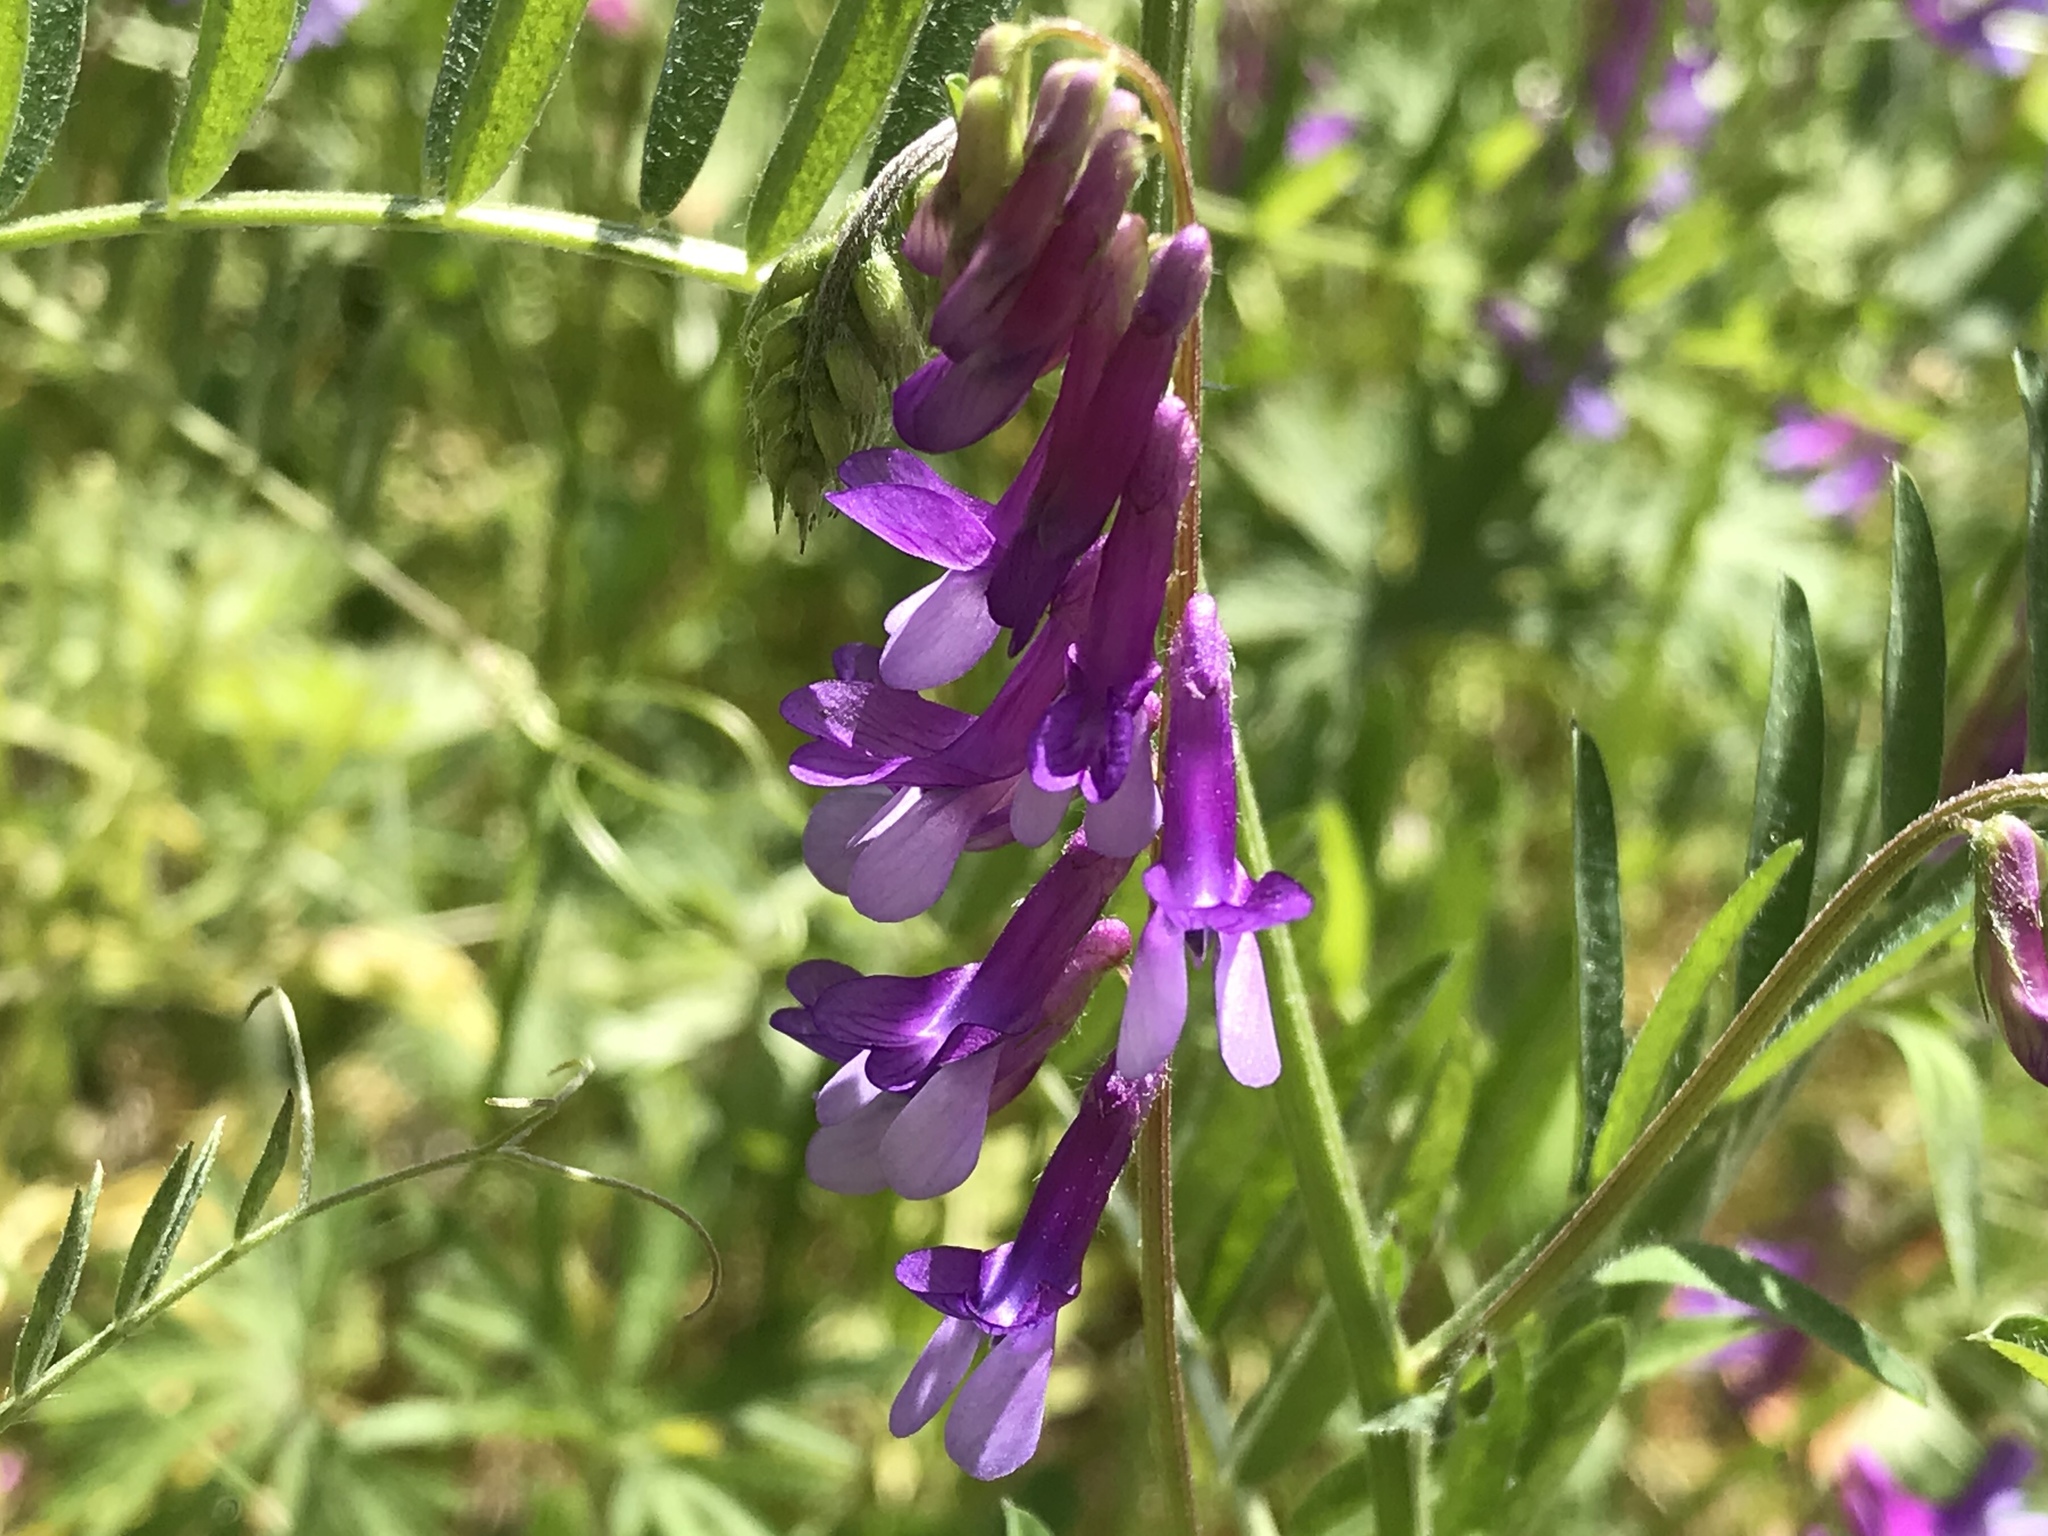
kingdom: Plantae
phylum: Tracheophyta
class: Magnoliopsida
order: Fabales
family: Fabaceae
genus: Vicia
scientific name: Vicia villosa
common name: Fodder vetch
